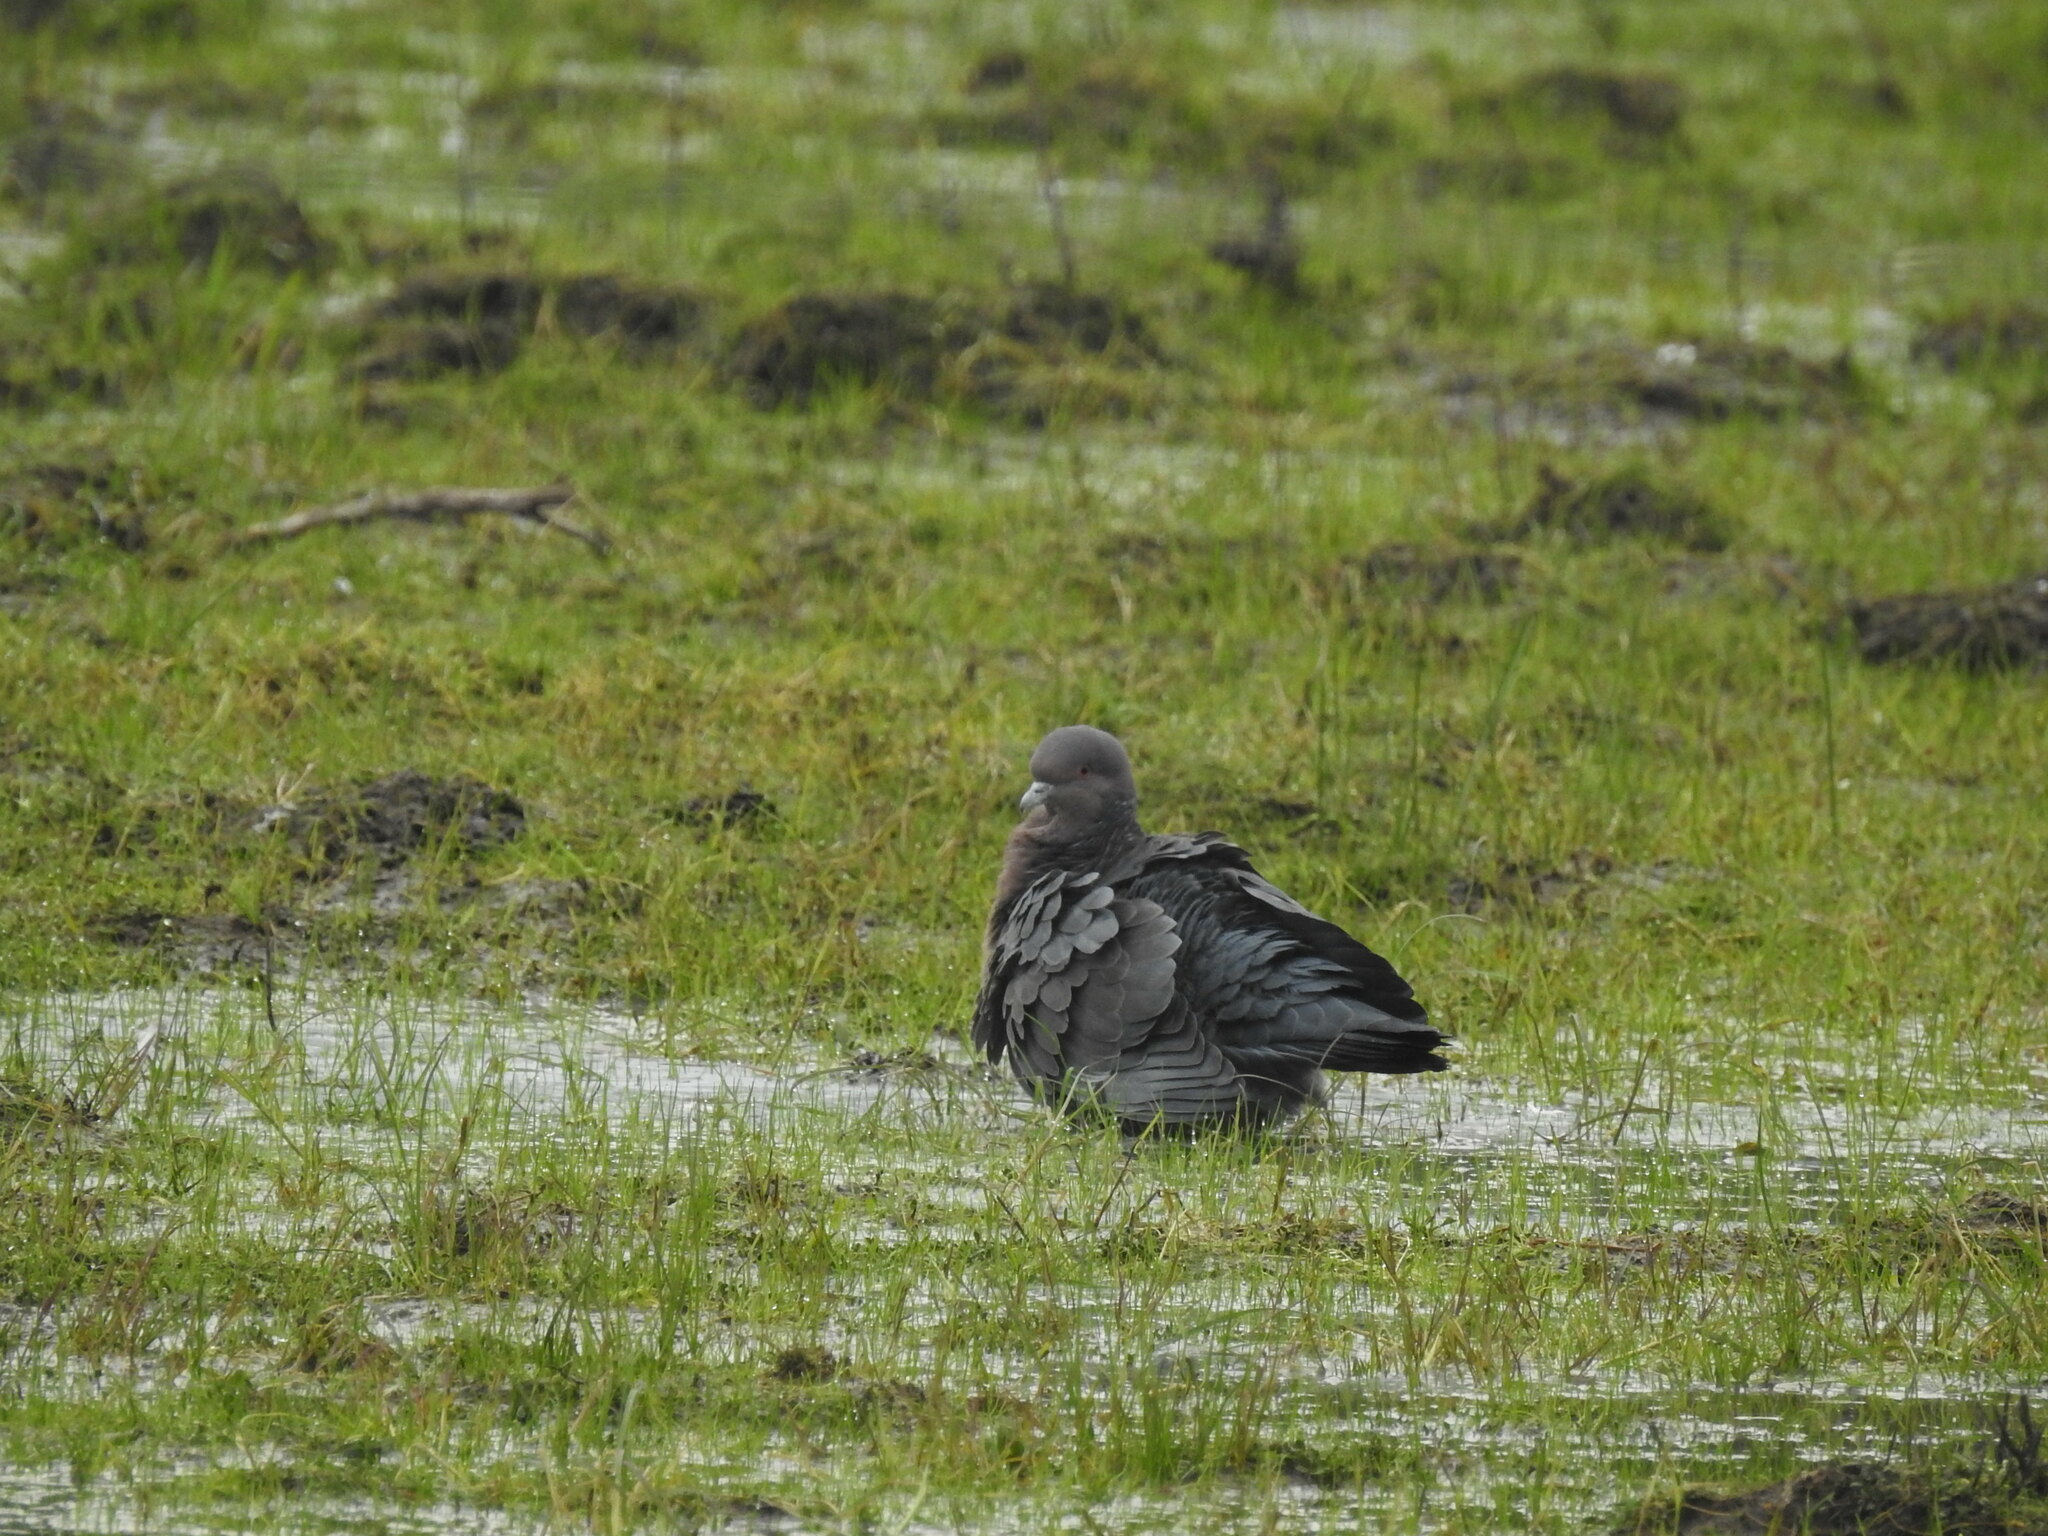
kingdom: Animalia
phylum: Chordata
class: Aves
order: Columbiformes
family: Columbidae
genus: Patagioenas
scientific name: Patagioenas picazuro
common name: Picazuro pigeon
